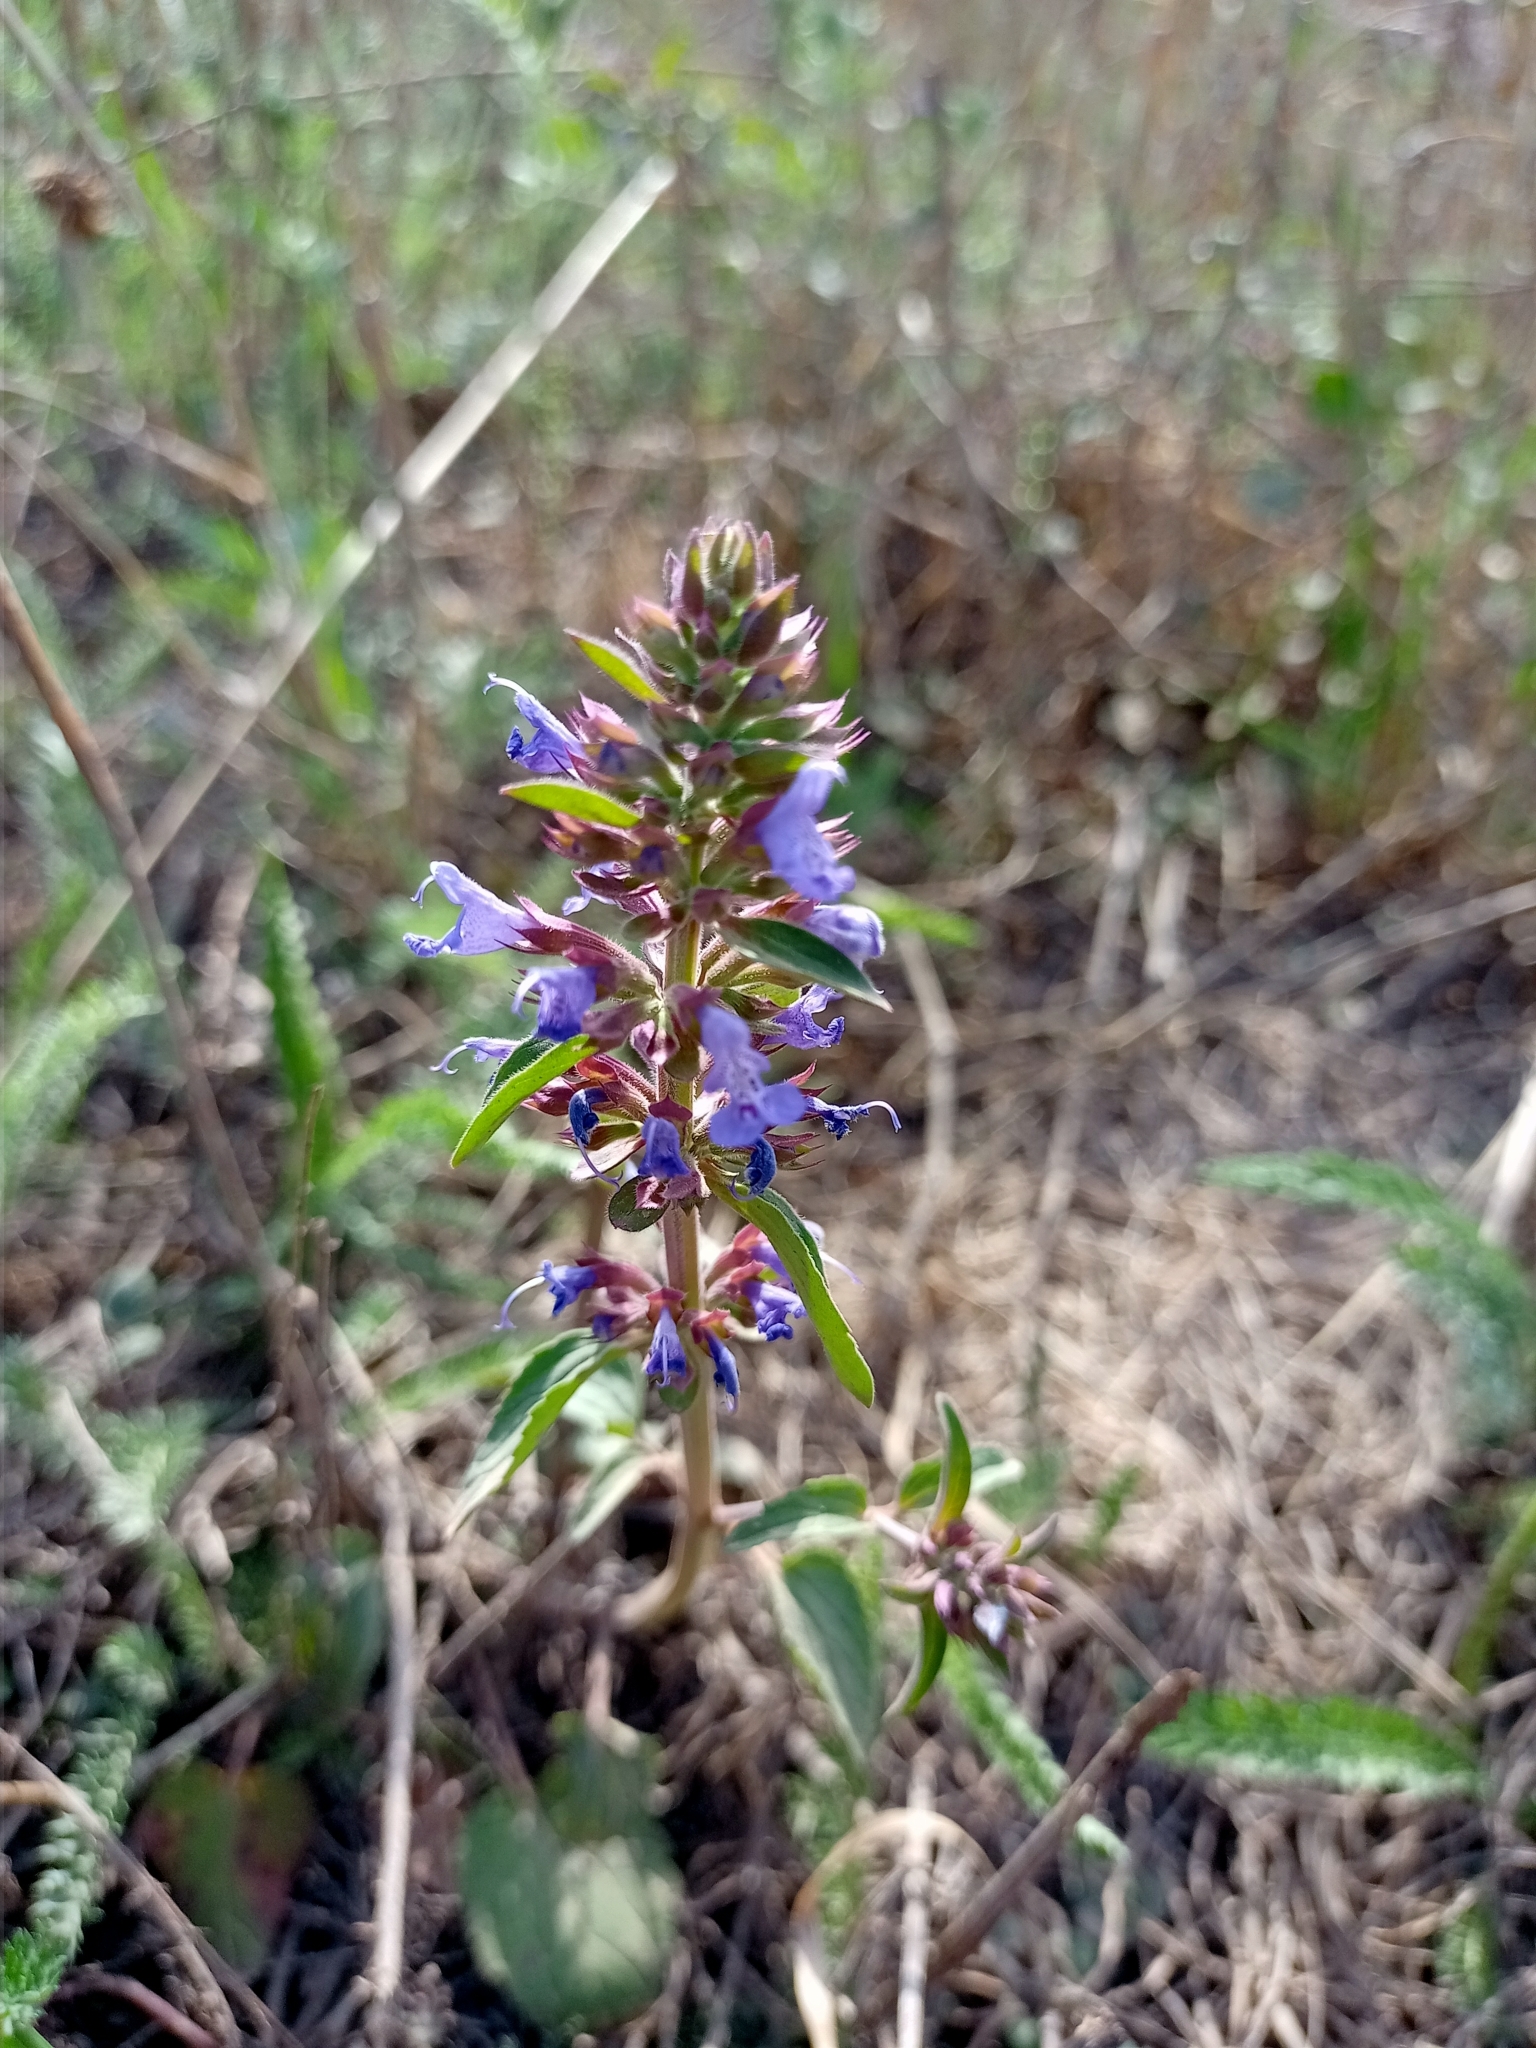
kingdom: Plantae
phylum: Tracheophyta
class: Magnoliopsida
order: Lamiales
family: Lamiaceae
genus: Dracocephalum
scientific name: Dracocephalum nutans
